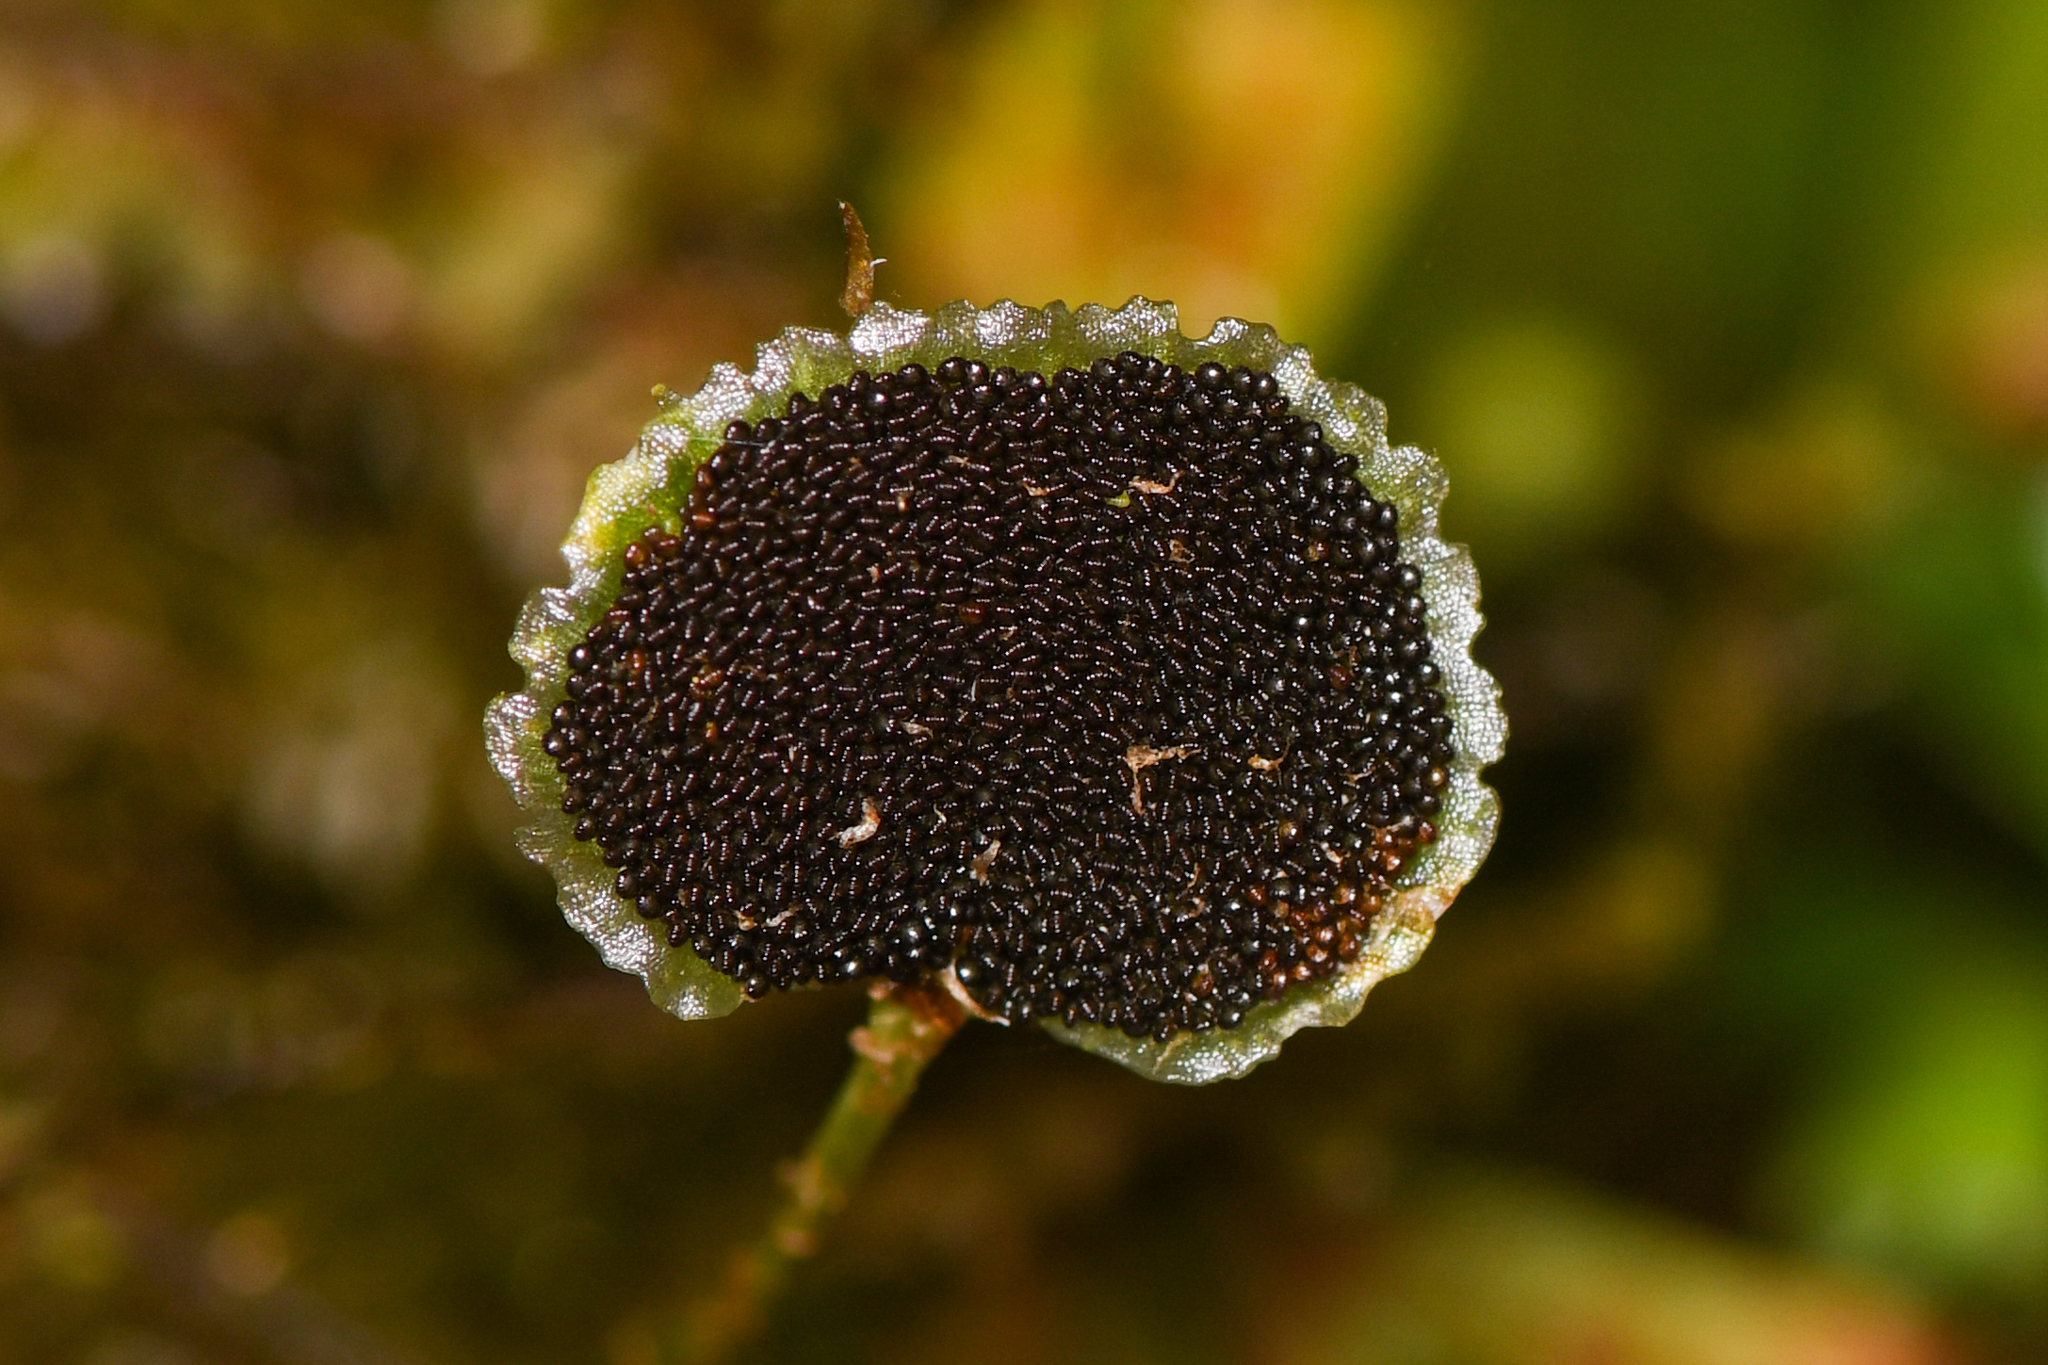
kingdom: Plantae
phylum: Tracheophyta
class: Polypodiopsida
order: Polypodiales
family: Dryopteridaceae
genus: Elaphoglossum
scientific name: Elaphoglossum peltatum
